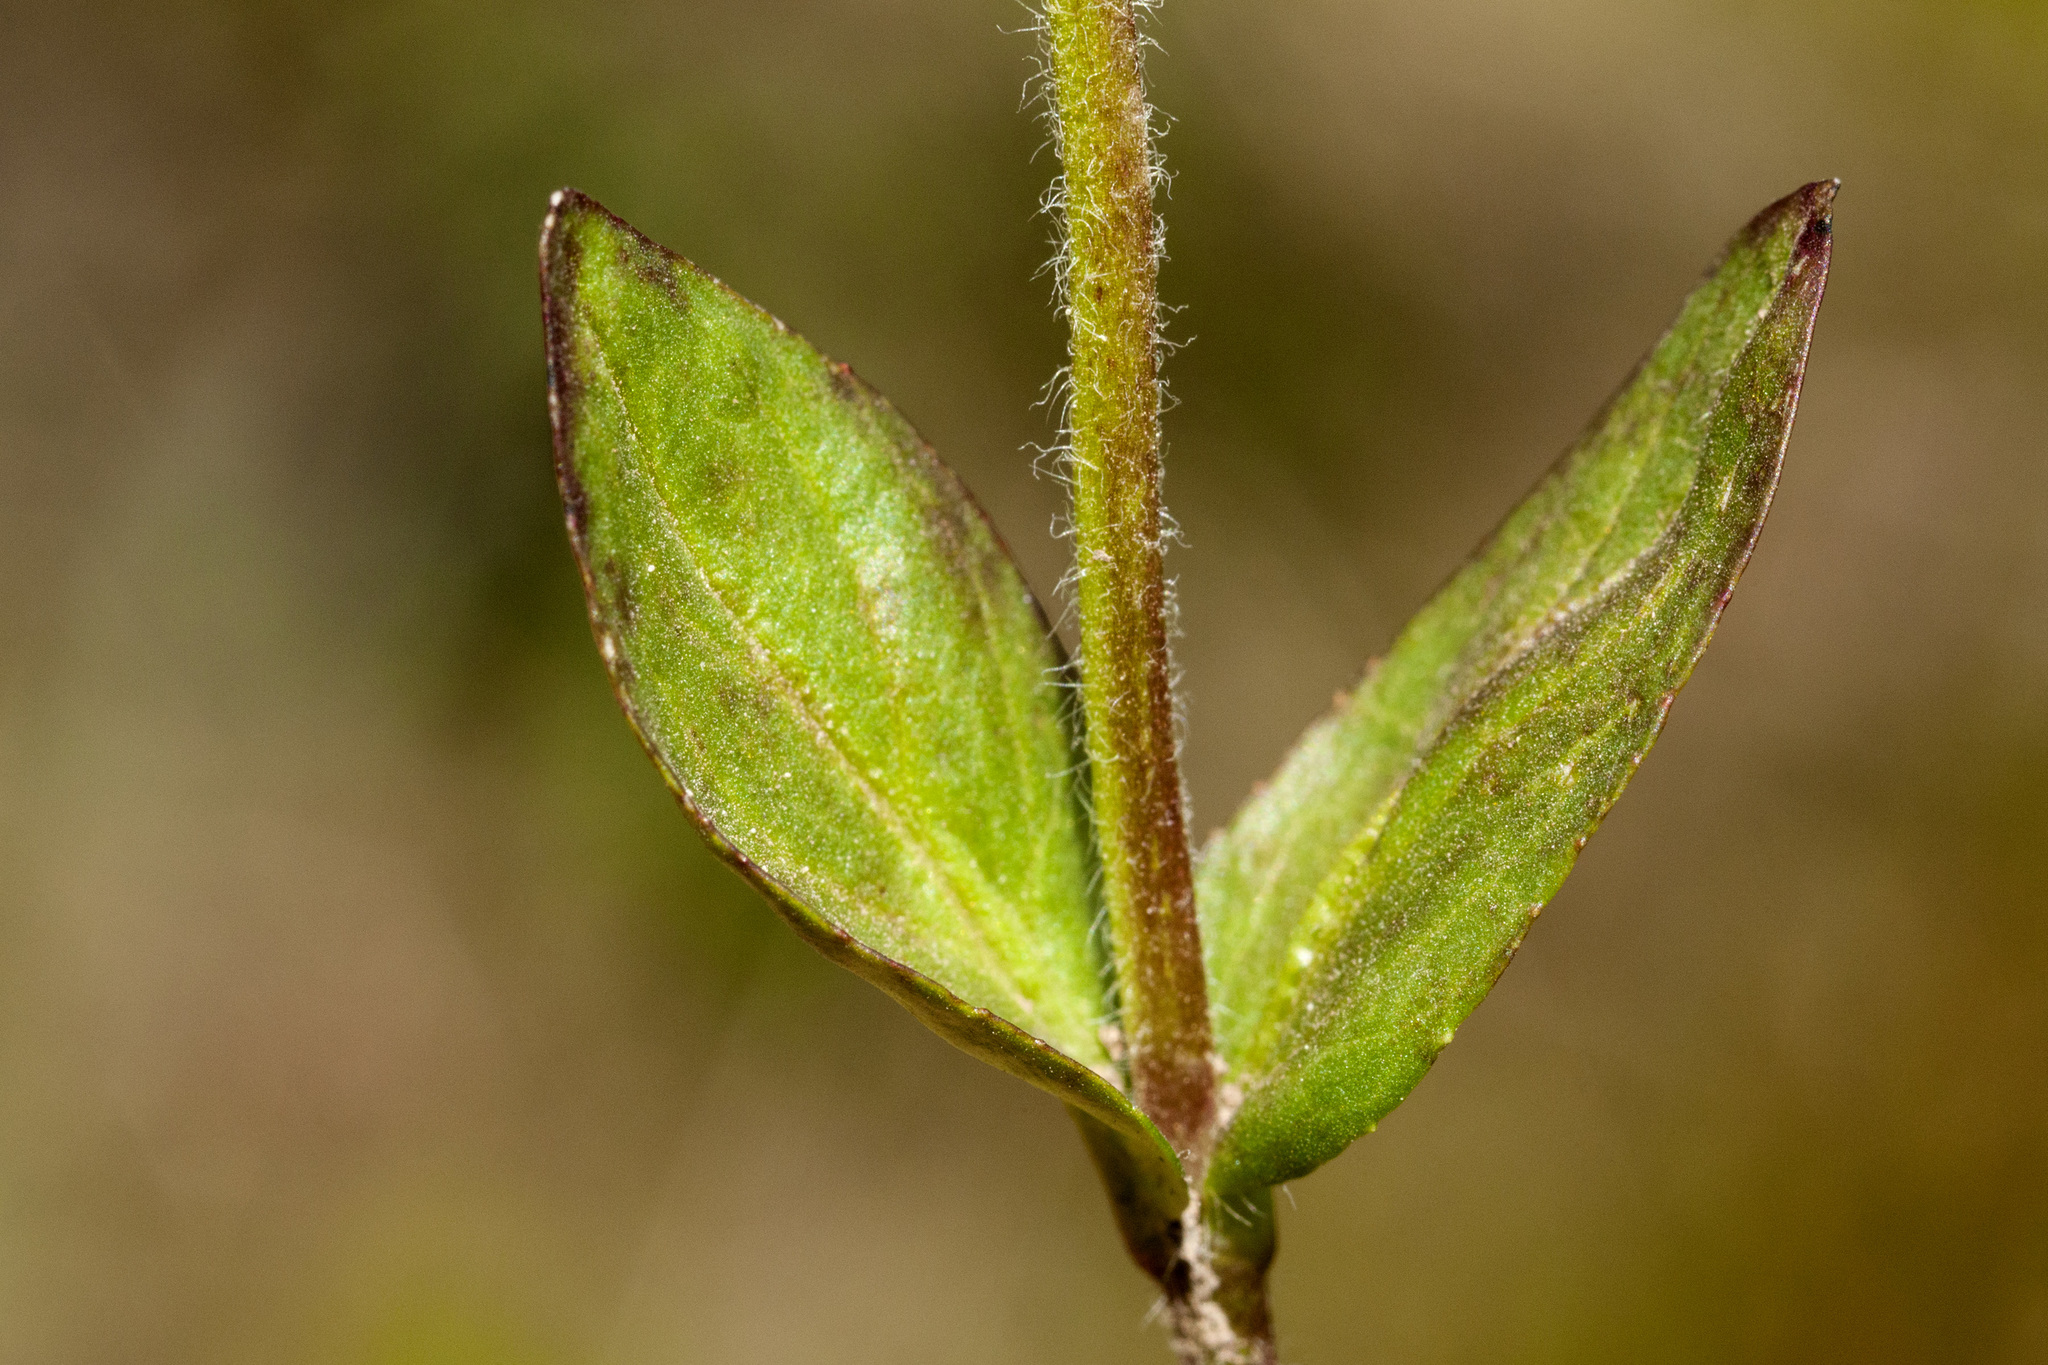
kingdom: Plantae
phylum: Tracheophyta
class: Magnoliopsida
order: Lamiales
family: Plantaginaceae
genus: Veronica
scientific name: Veronica wormskjoldii
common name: American alpine speedwell
